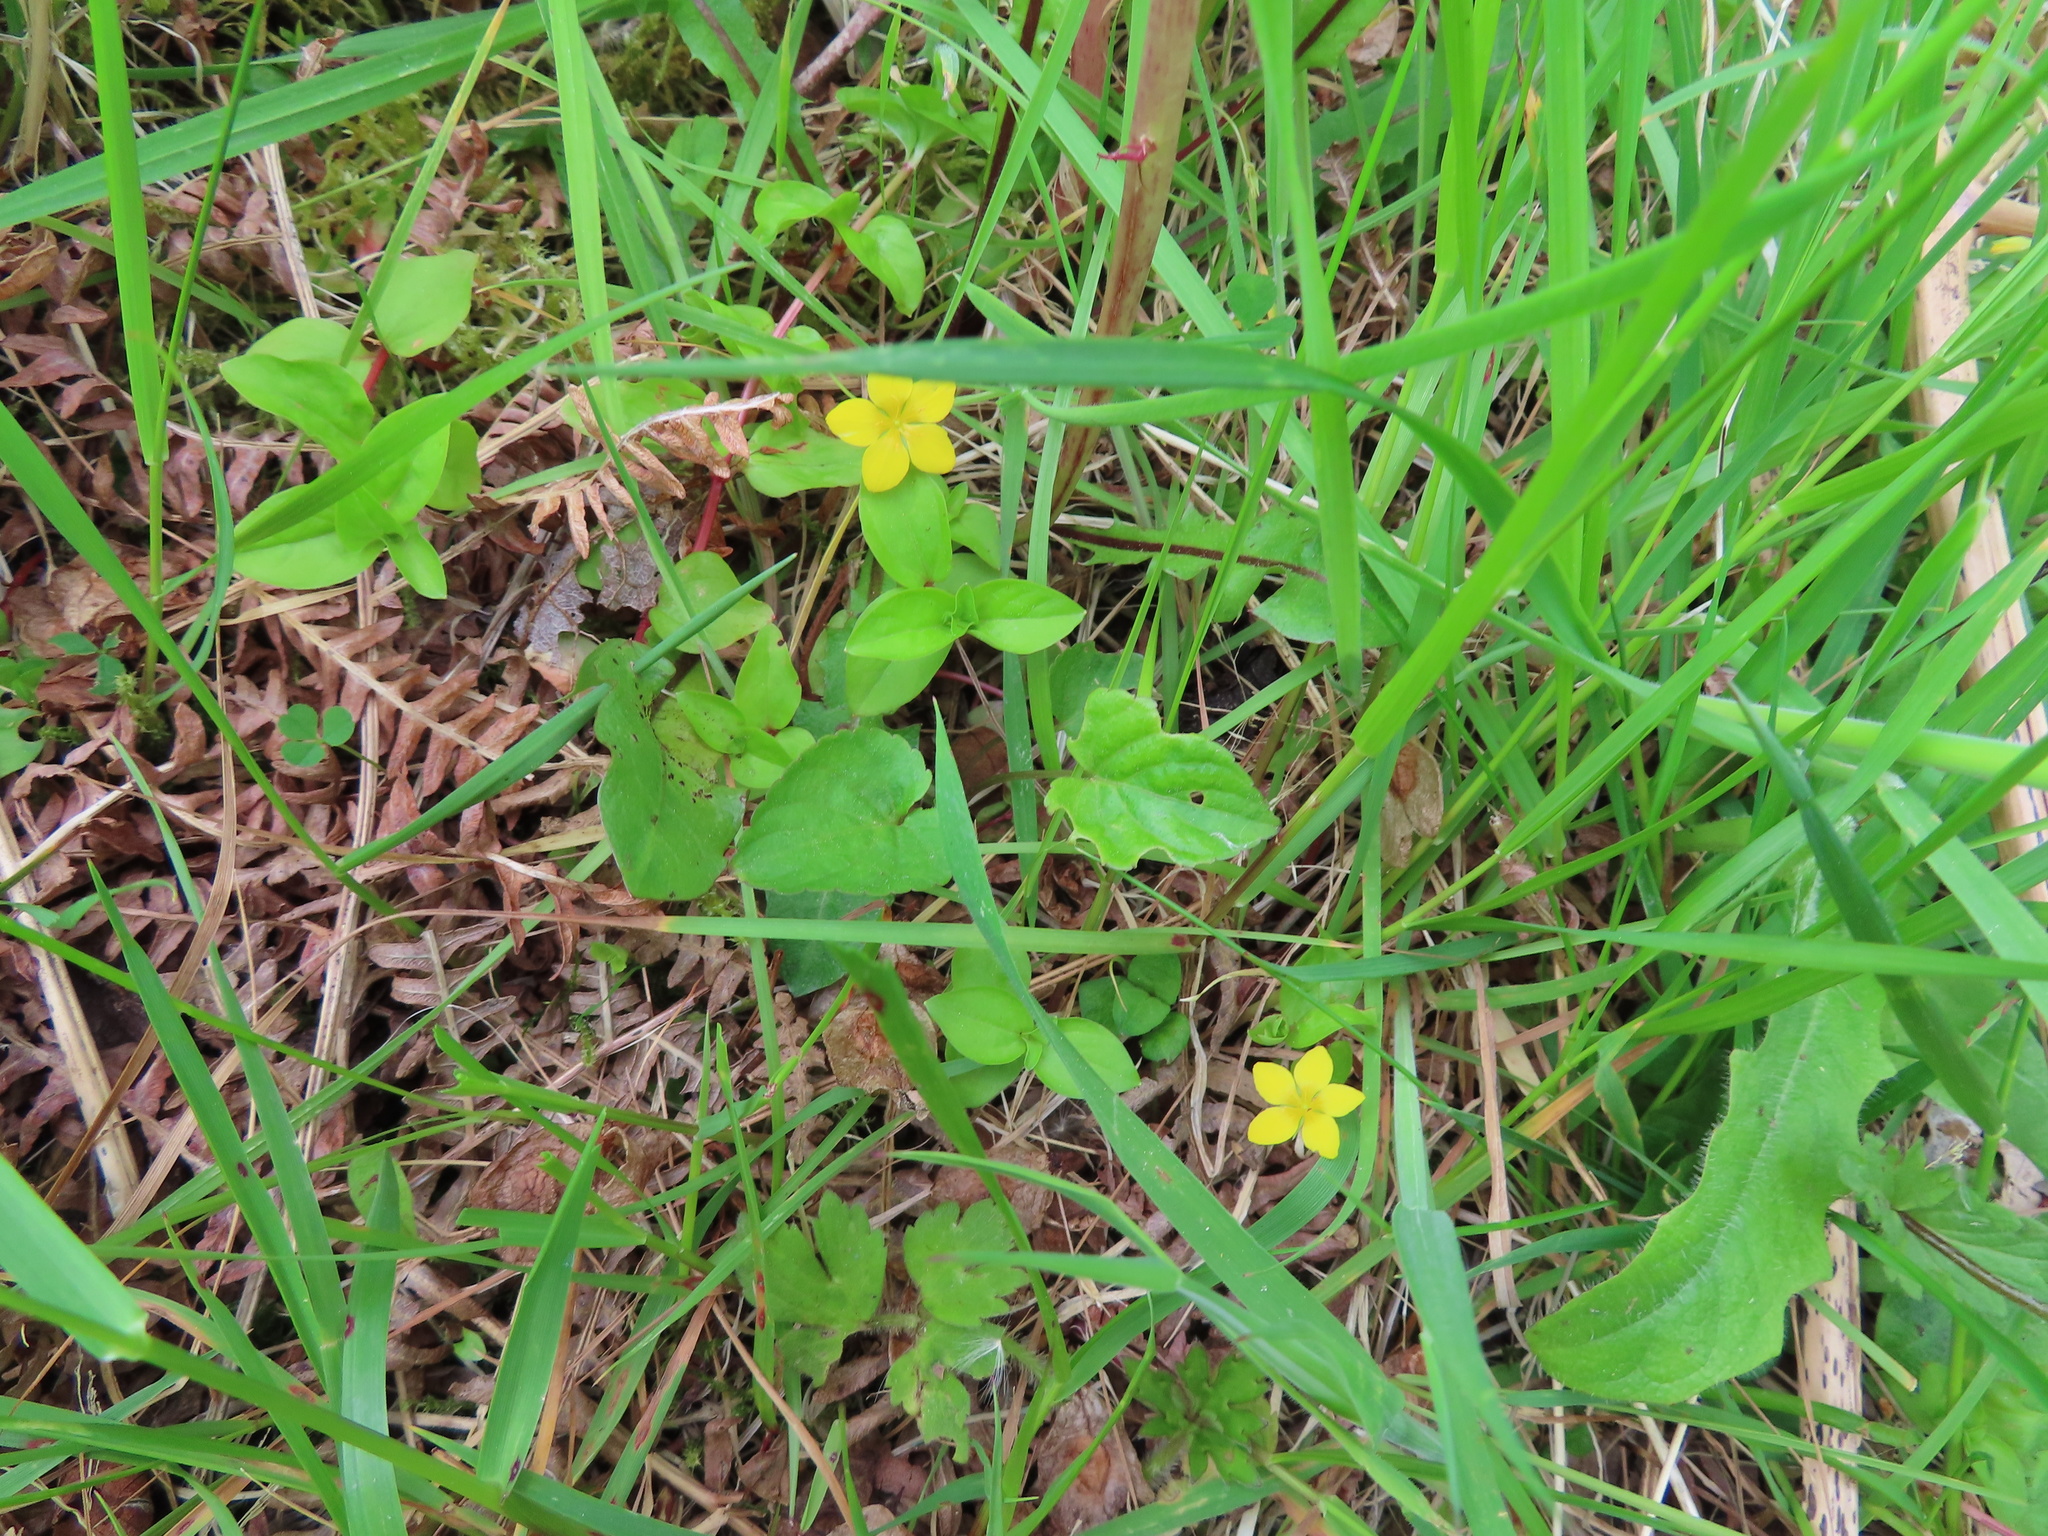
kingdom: Plantae
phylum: Tracheophyta
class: Magnoliopsida
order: Ericales
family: Primulaceae
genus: Lysimachia
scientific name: Lysimachia nemorum
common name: Yellow pimpernel
